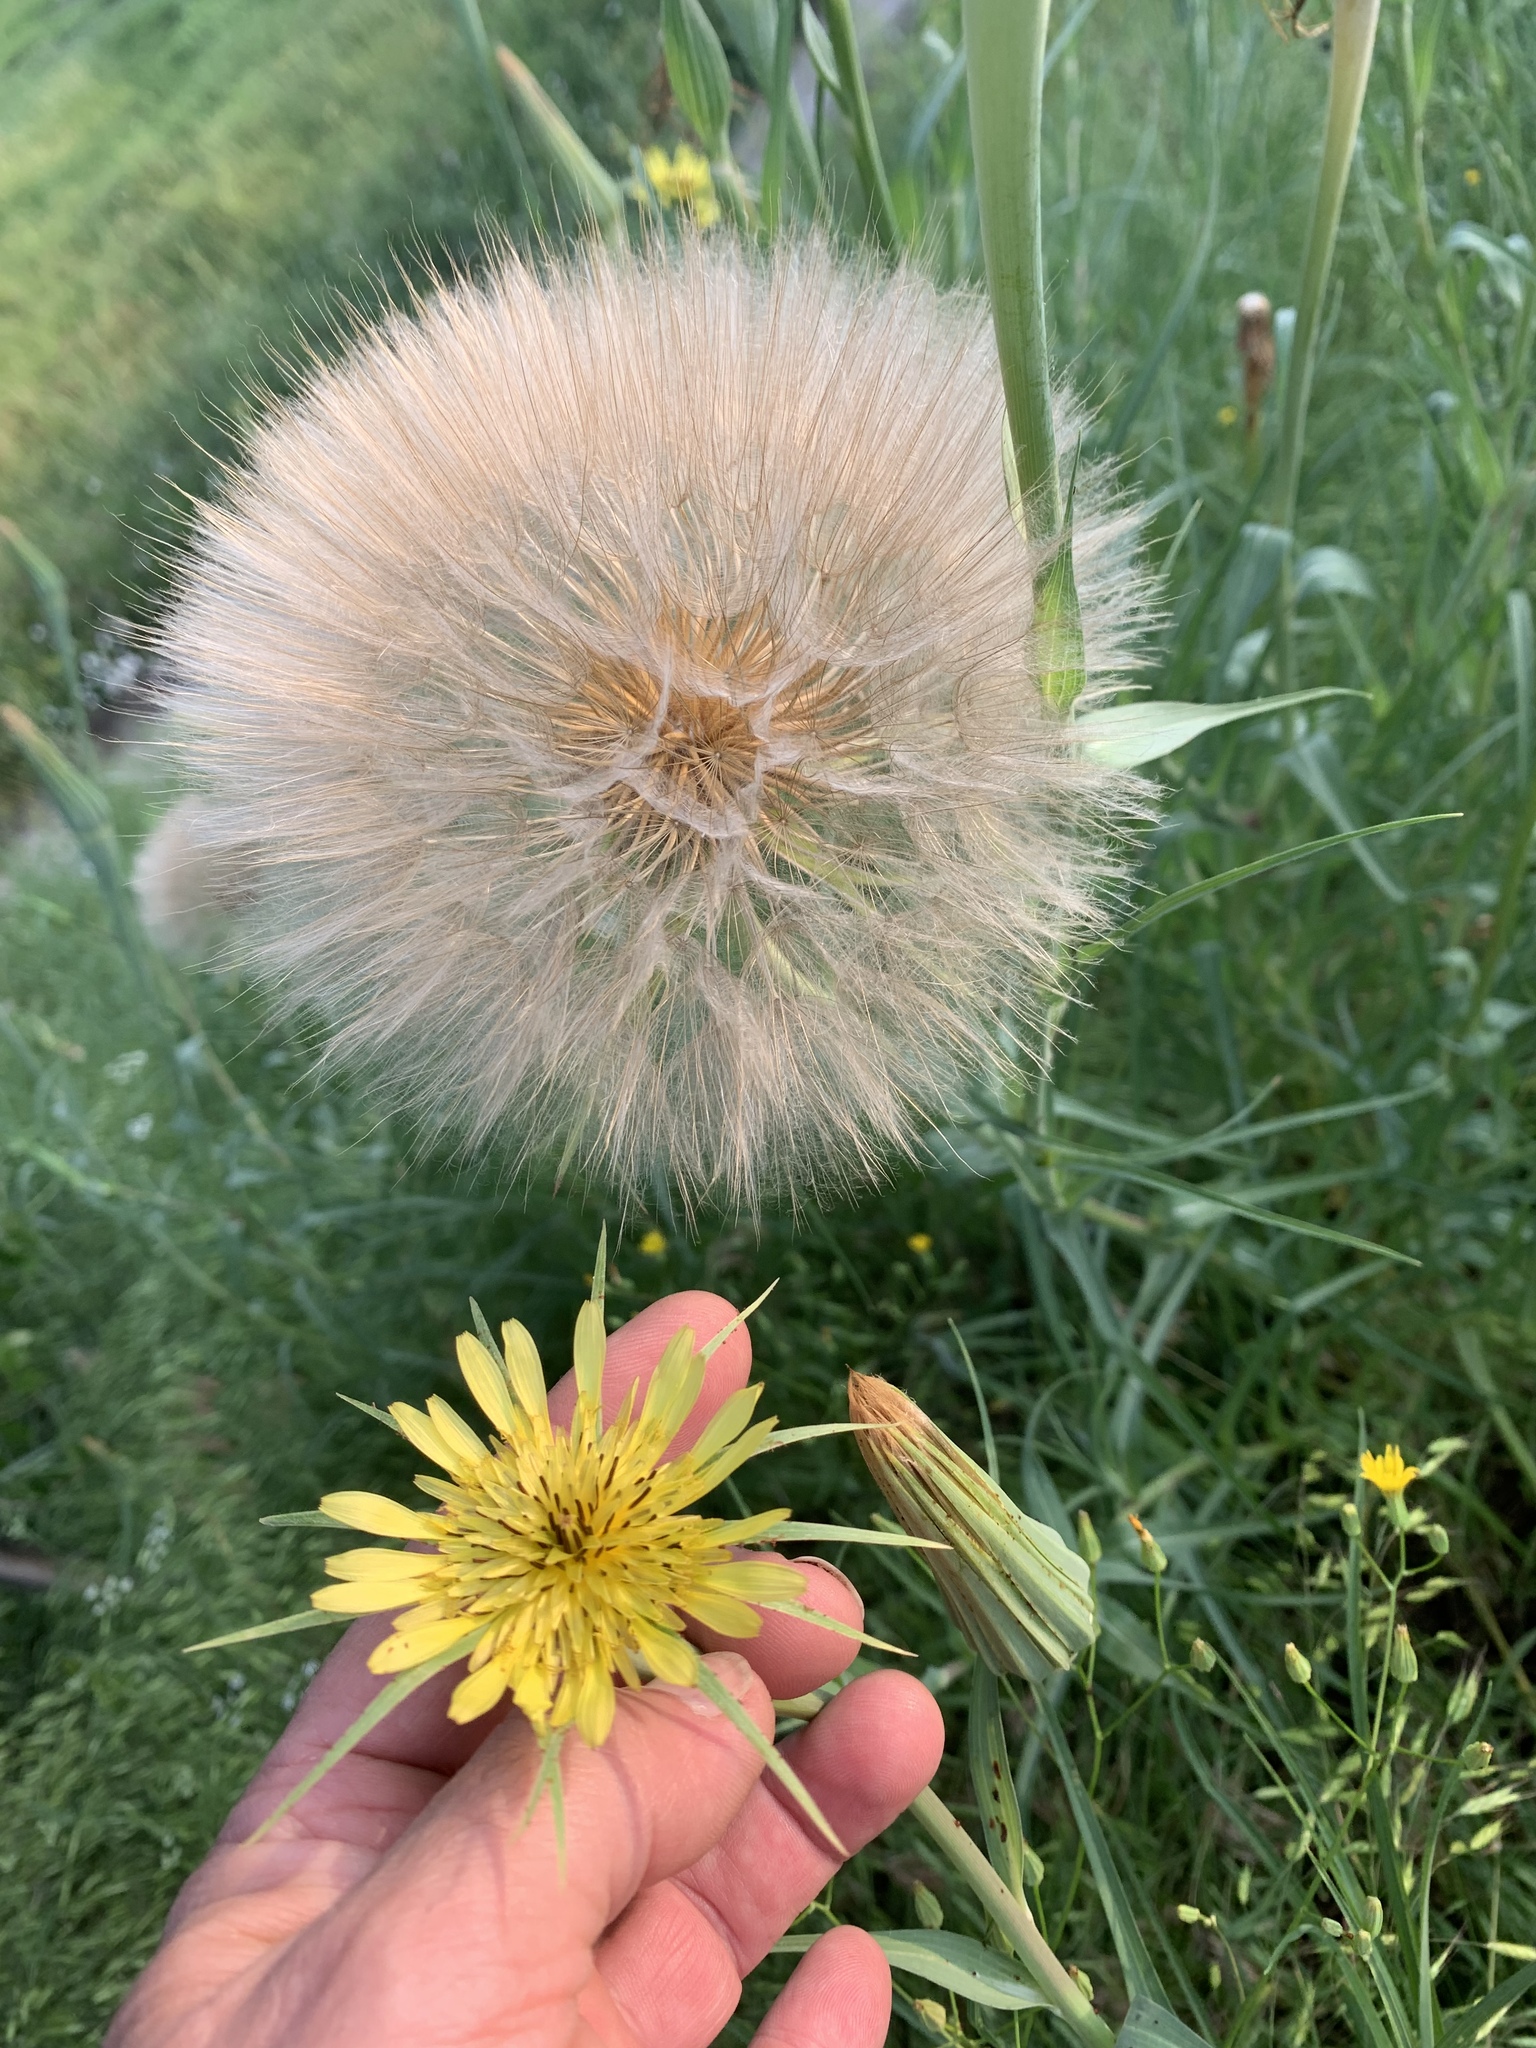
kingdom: Plantae
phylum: Tracheophyta
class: Magnoliopsida
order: Asterales
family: Asteraceae
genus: Tragopogon
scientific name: Tragopogon dubius
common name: Yellow salsify
